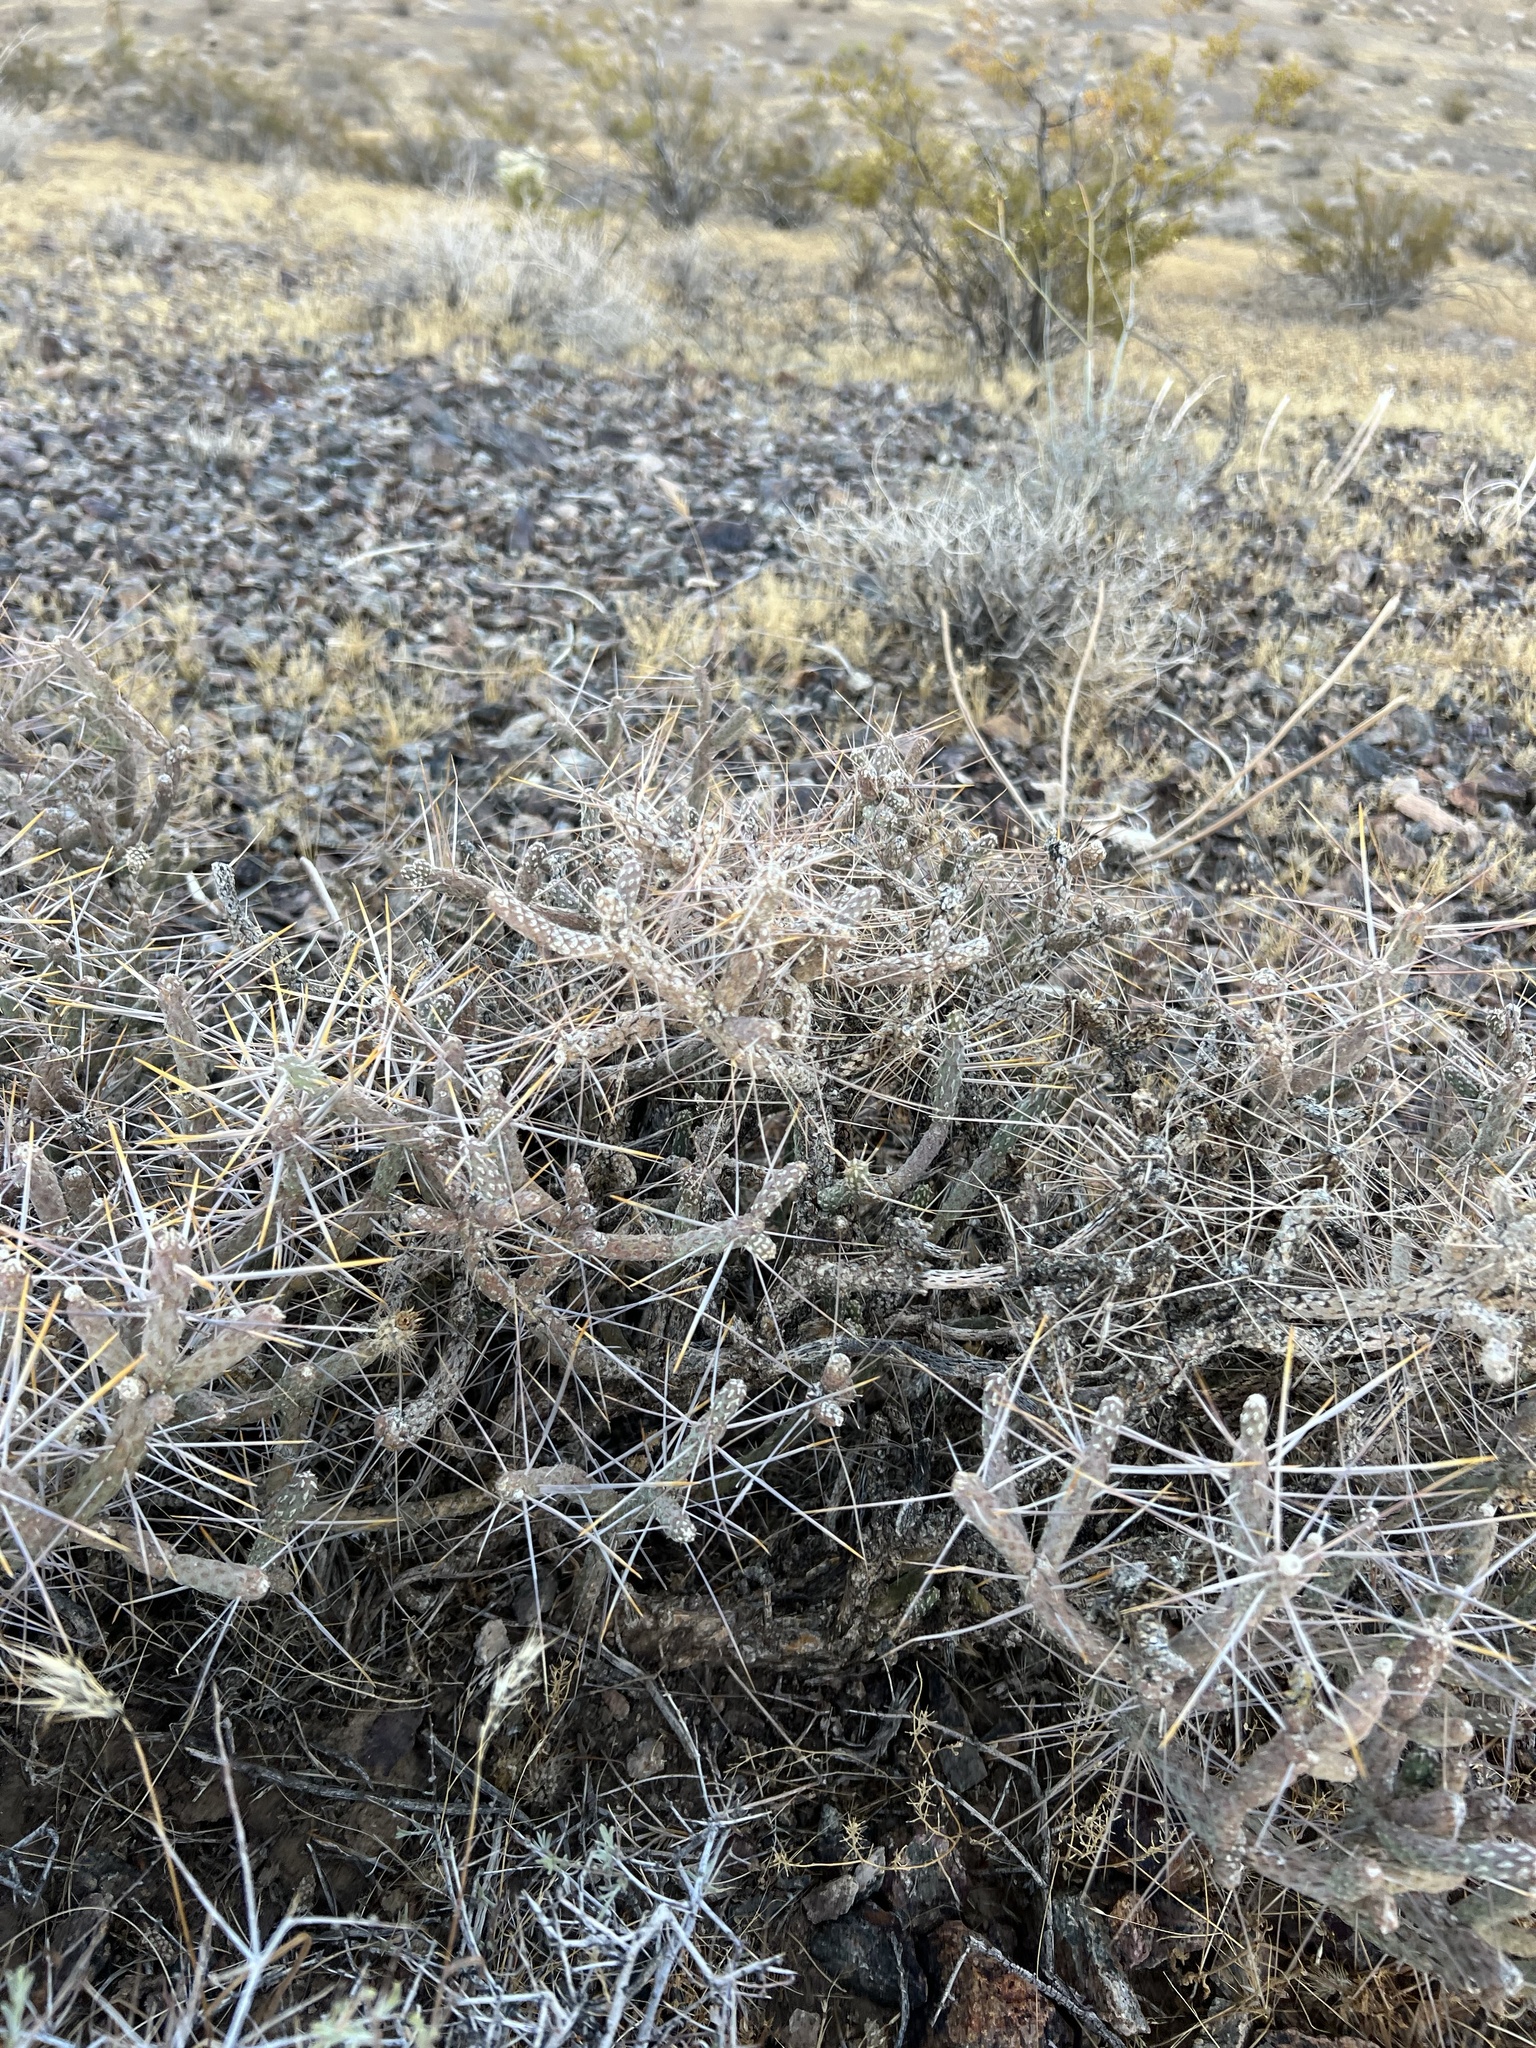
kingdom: Plantae
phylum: Tracheophyta
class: Magnoliopsida
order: Caryophyllales
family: Cactaceae
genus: Cylindropuntia
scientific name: Cylindropuntia ramosissima
